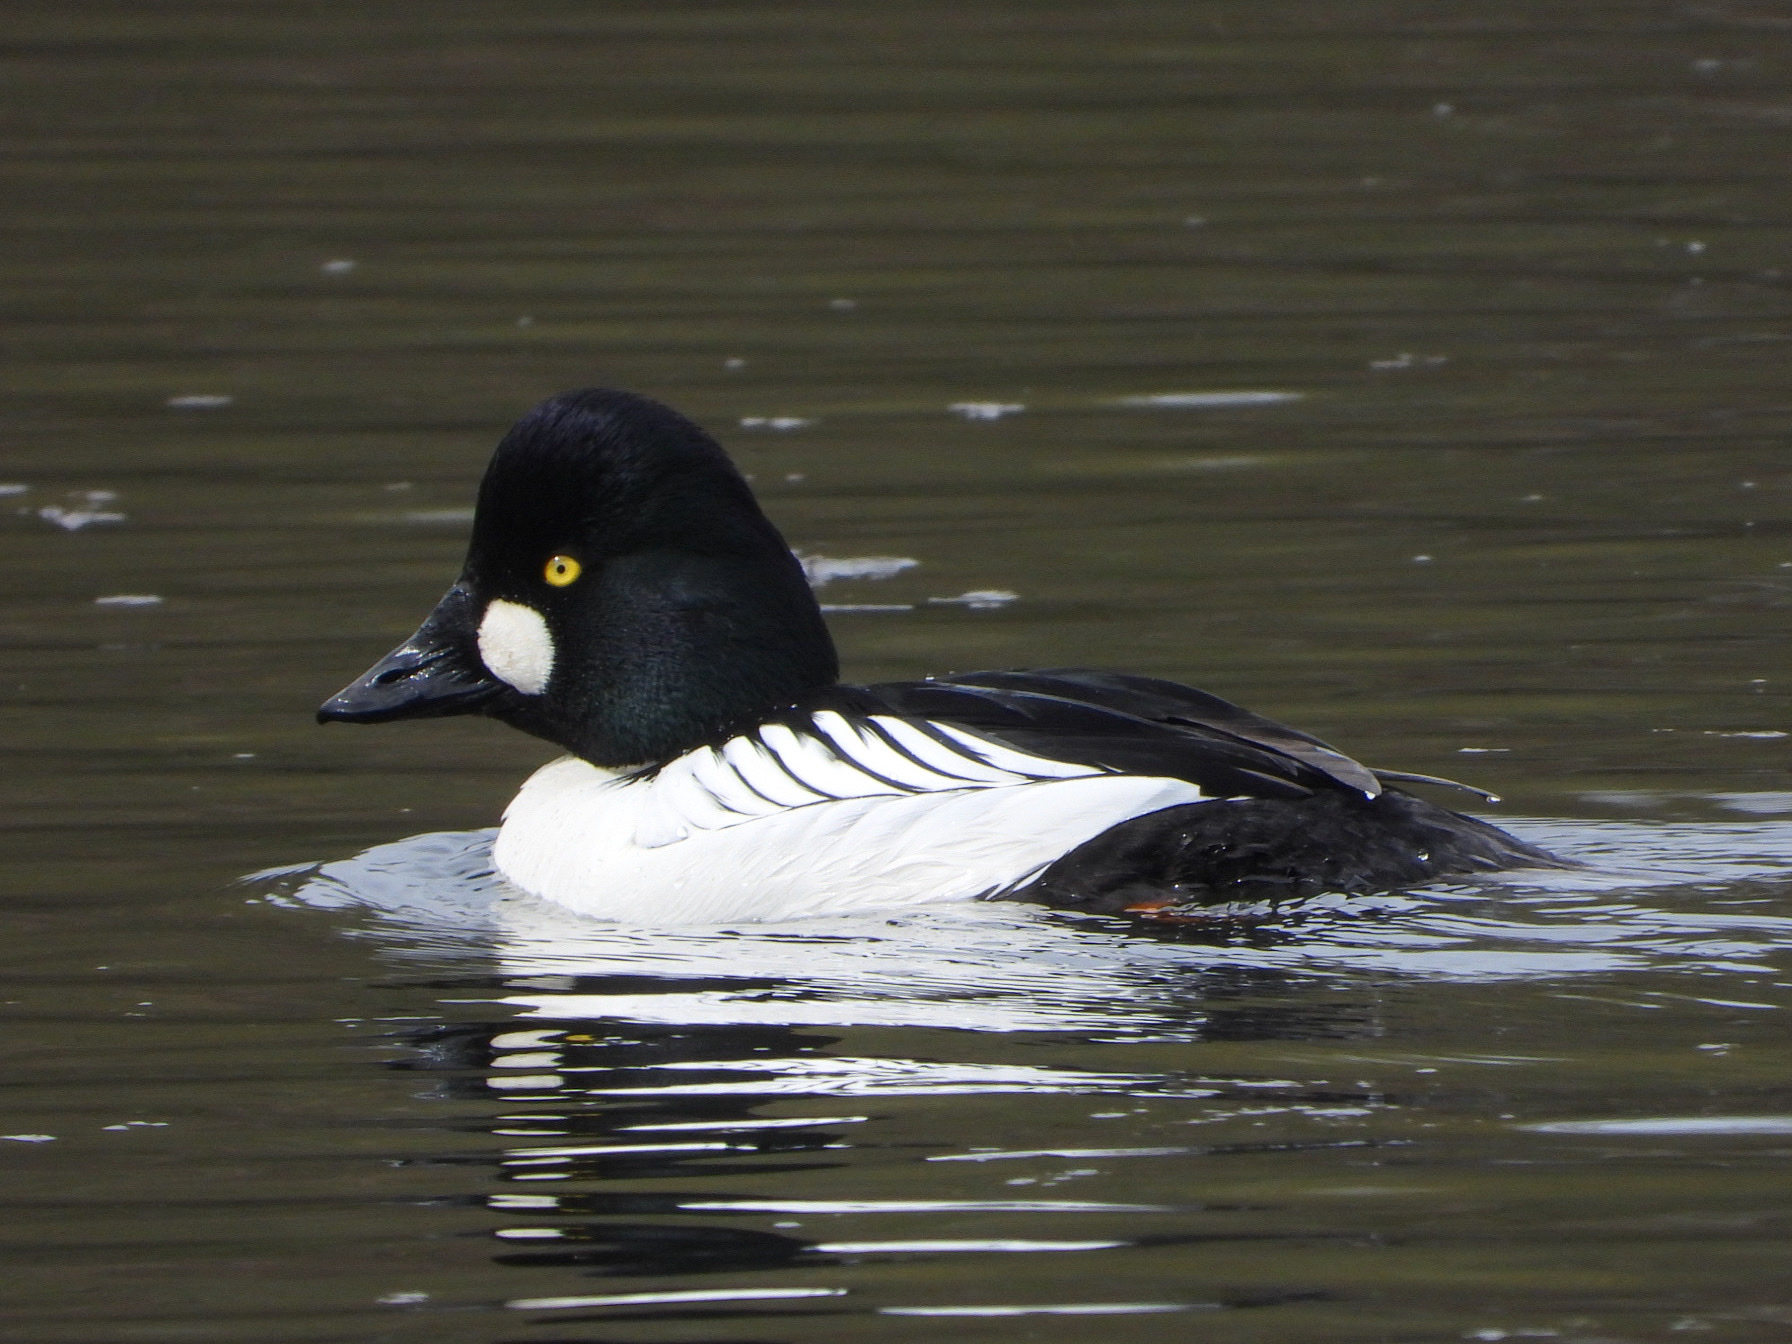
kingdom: Animalia
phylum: Chordata
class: Aves
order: Anseriformes
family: Anatidae
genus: Bucephala
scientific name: Bucephala clangula
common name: Common goldeneye
